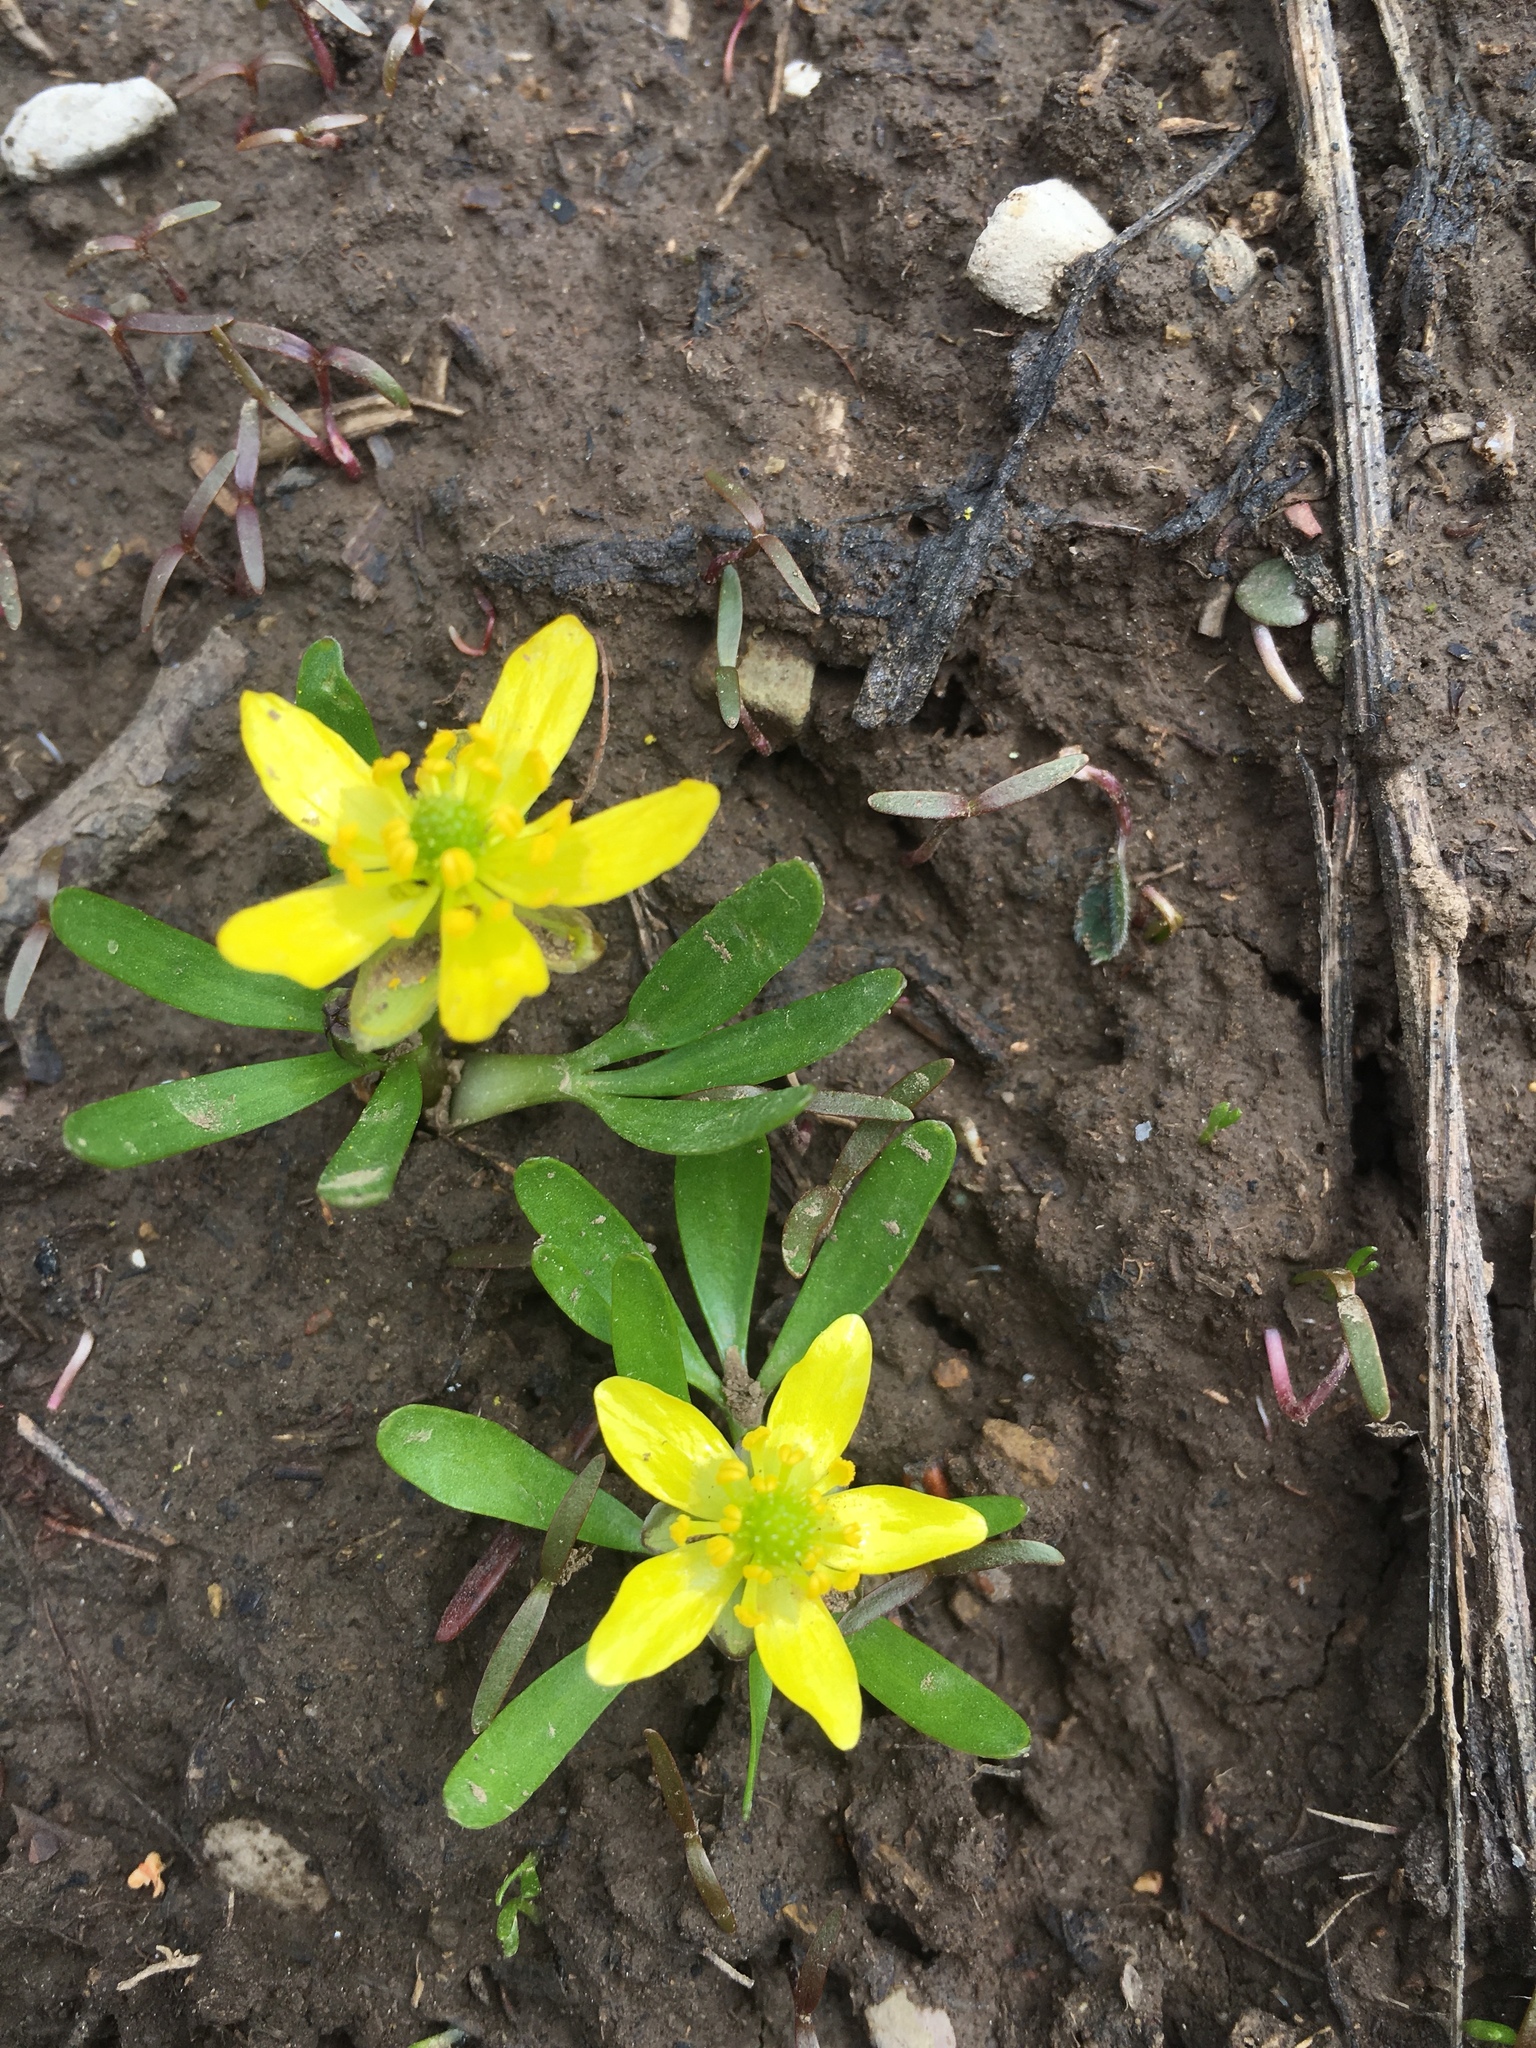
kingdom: Plantae
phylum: Tracheophyta
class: Magnoliopsida
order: Ranunculales
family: Ranunculaceae
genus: Ranunculus
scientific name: Ranunculus digitatus
